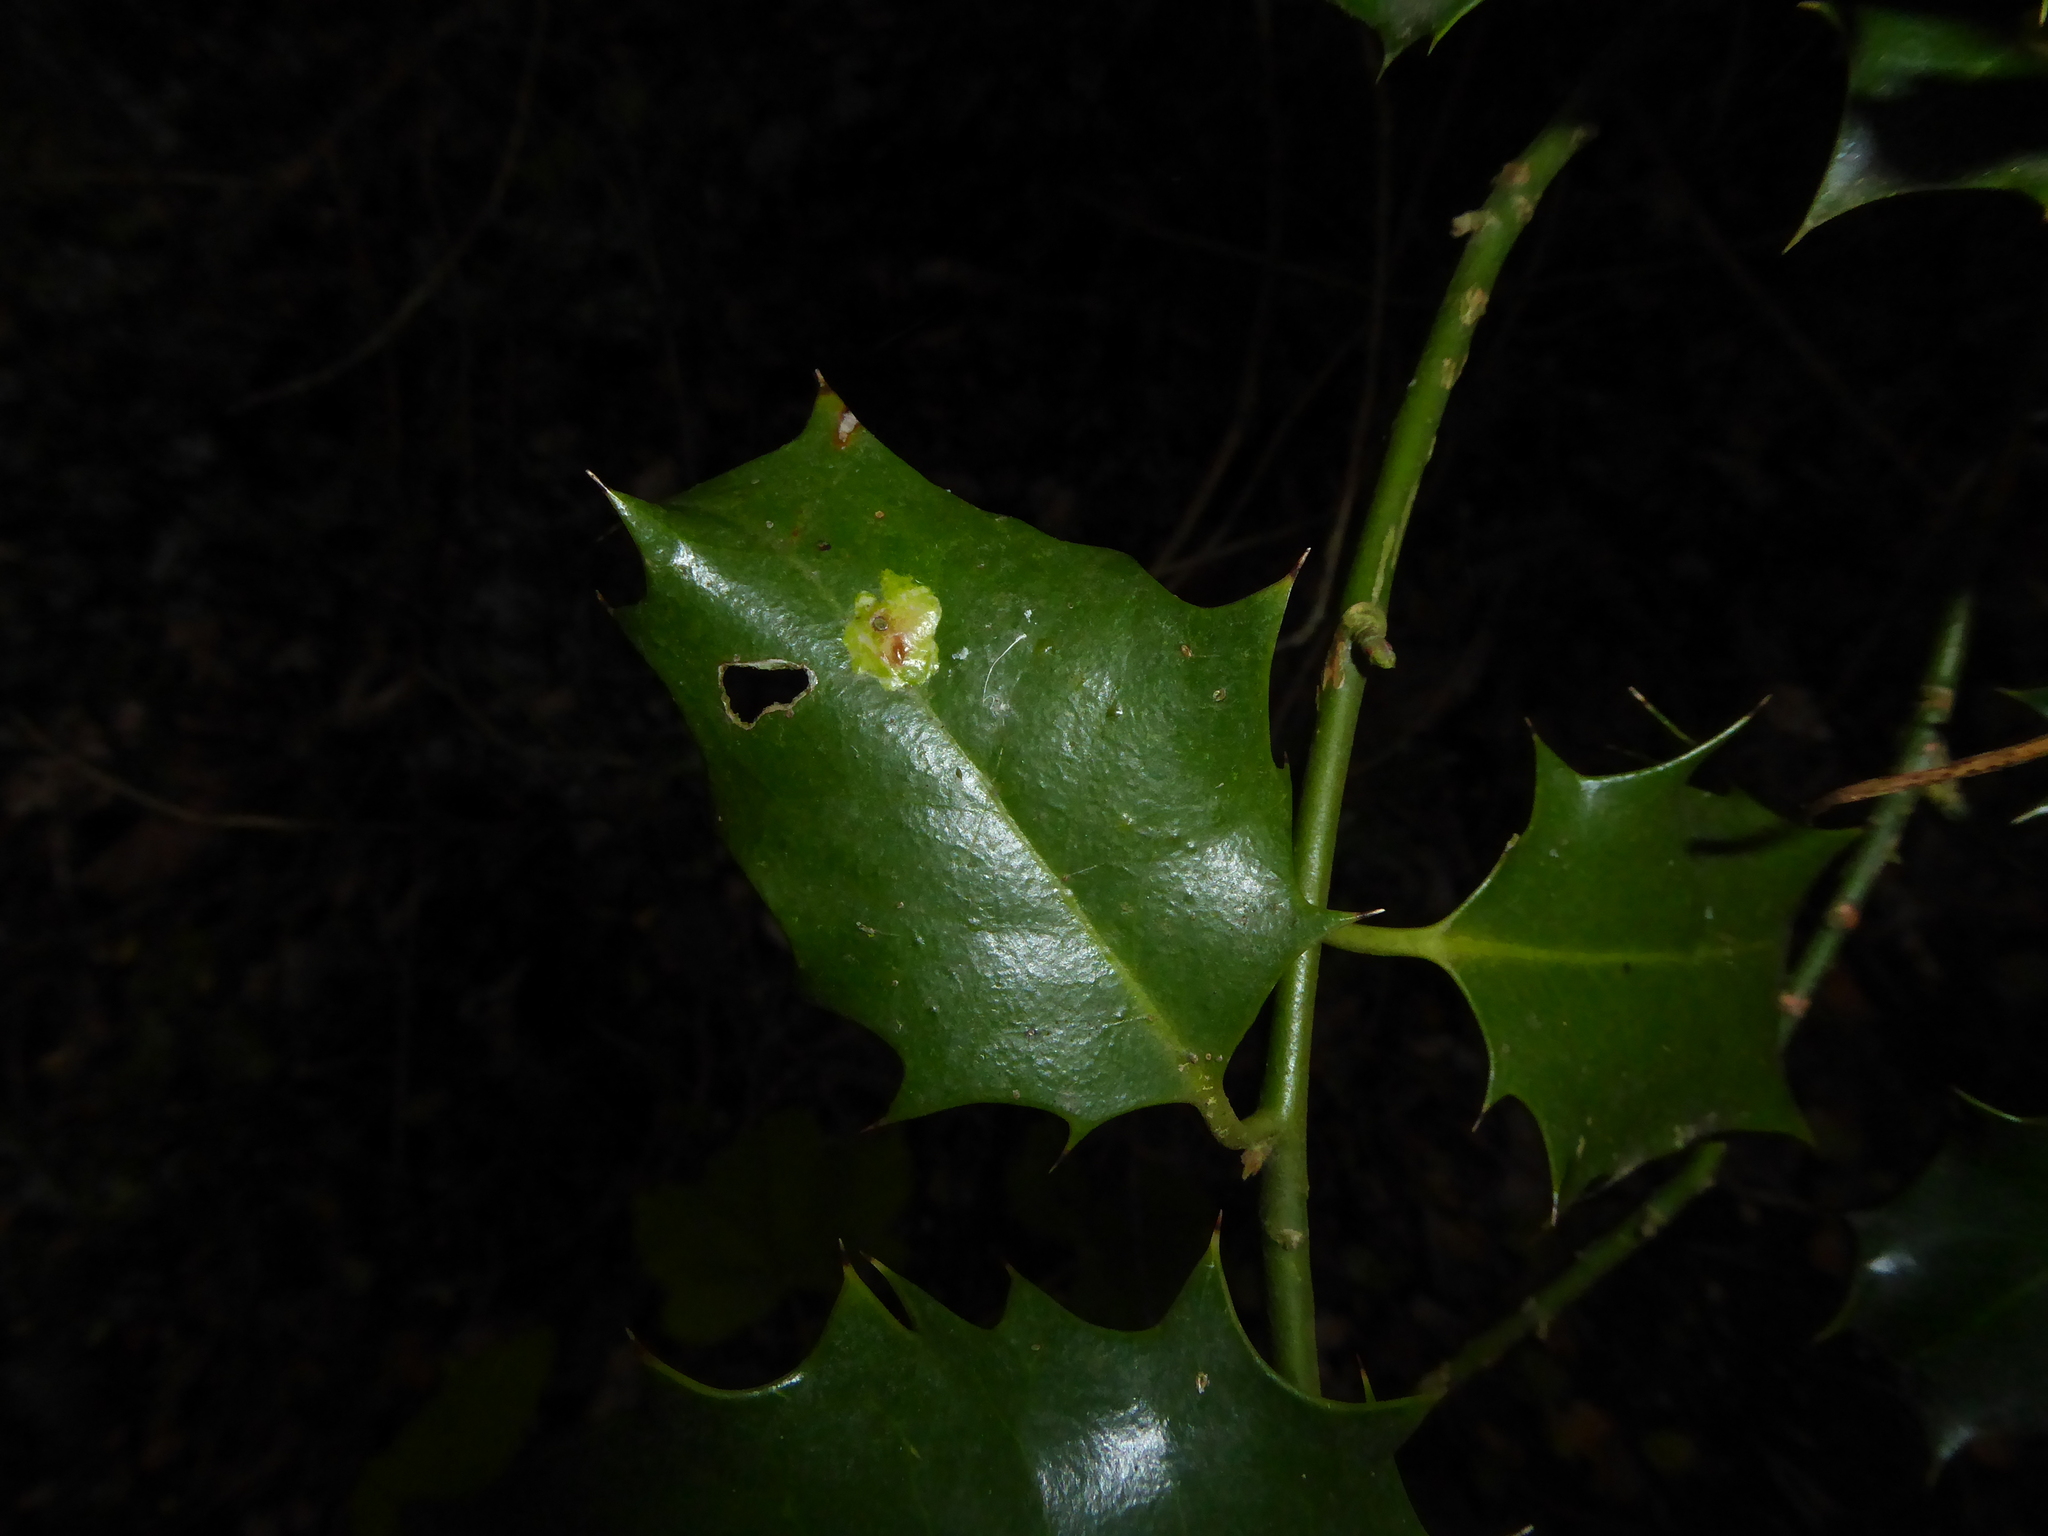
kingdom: Animalia
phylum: Arthropoda
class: Insecta
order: Diptera
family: Agromyzidae
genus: Phytomyza
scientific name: Phytomyza ilicis
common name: Holly leafminer
